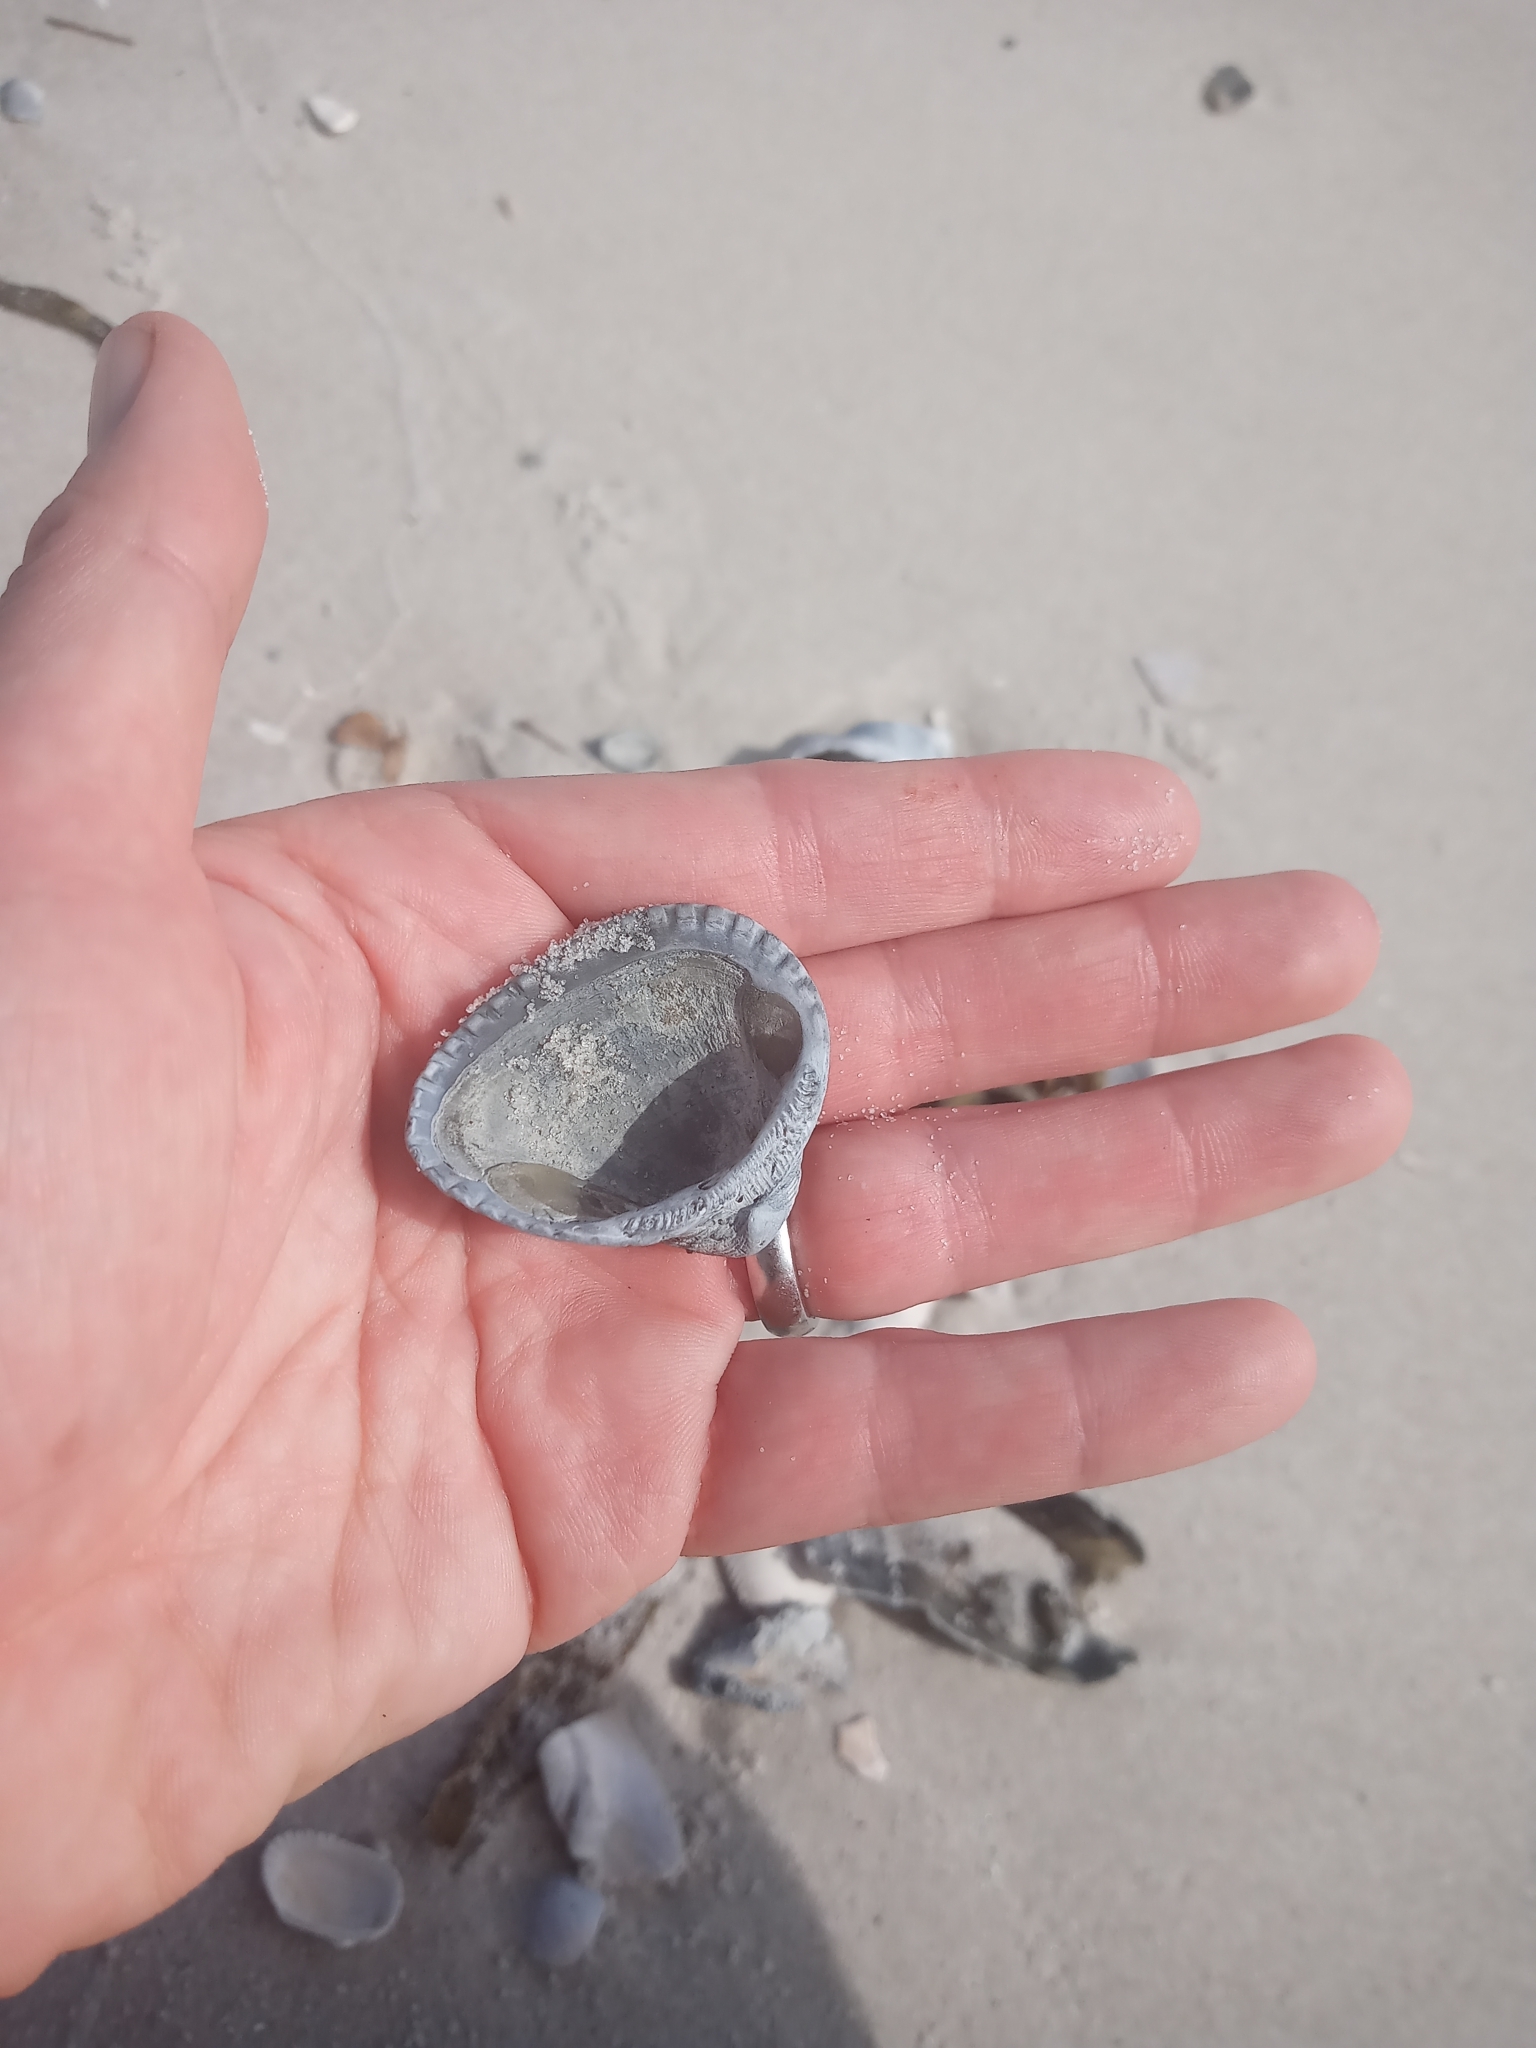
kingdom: Animalia
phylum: Mollusca
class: Bivalvia
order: Arcida
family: Noetiidae
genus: Noetia
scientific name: Noetia ponderosa
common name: Ponderous ark
